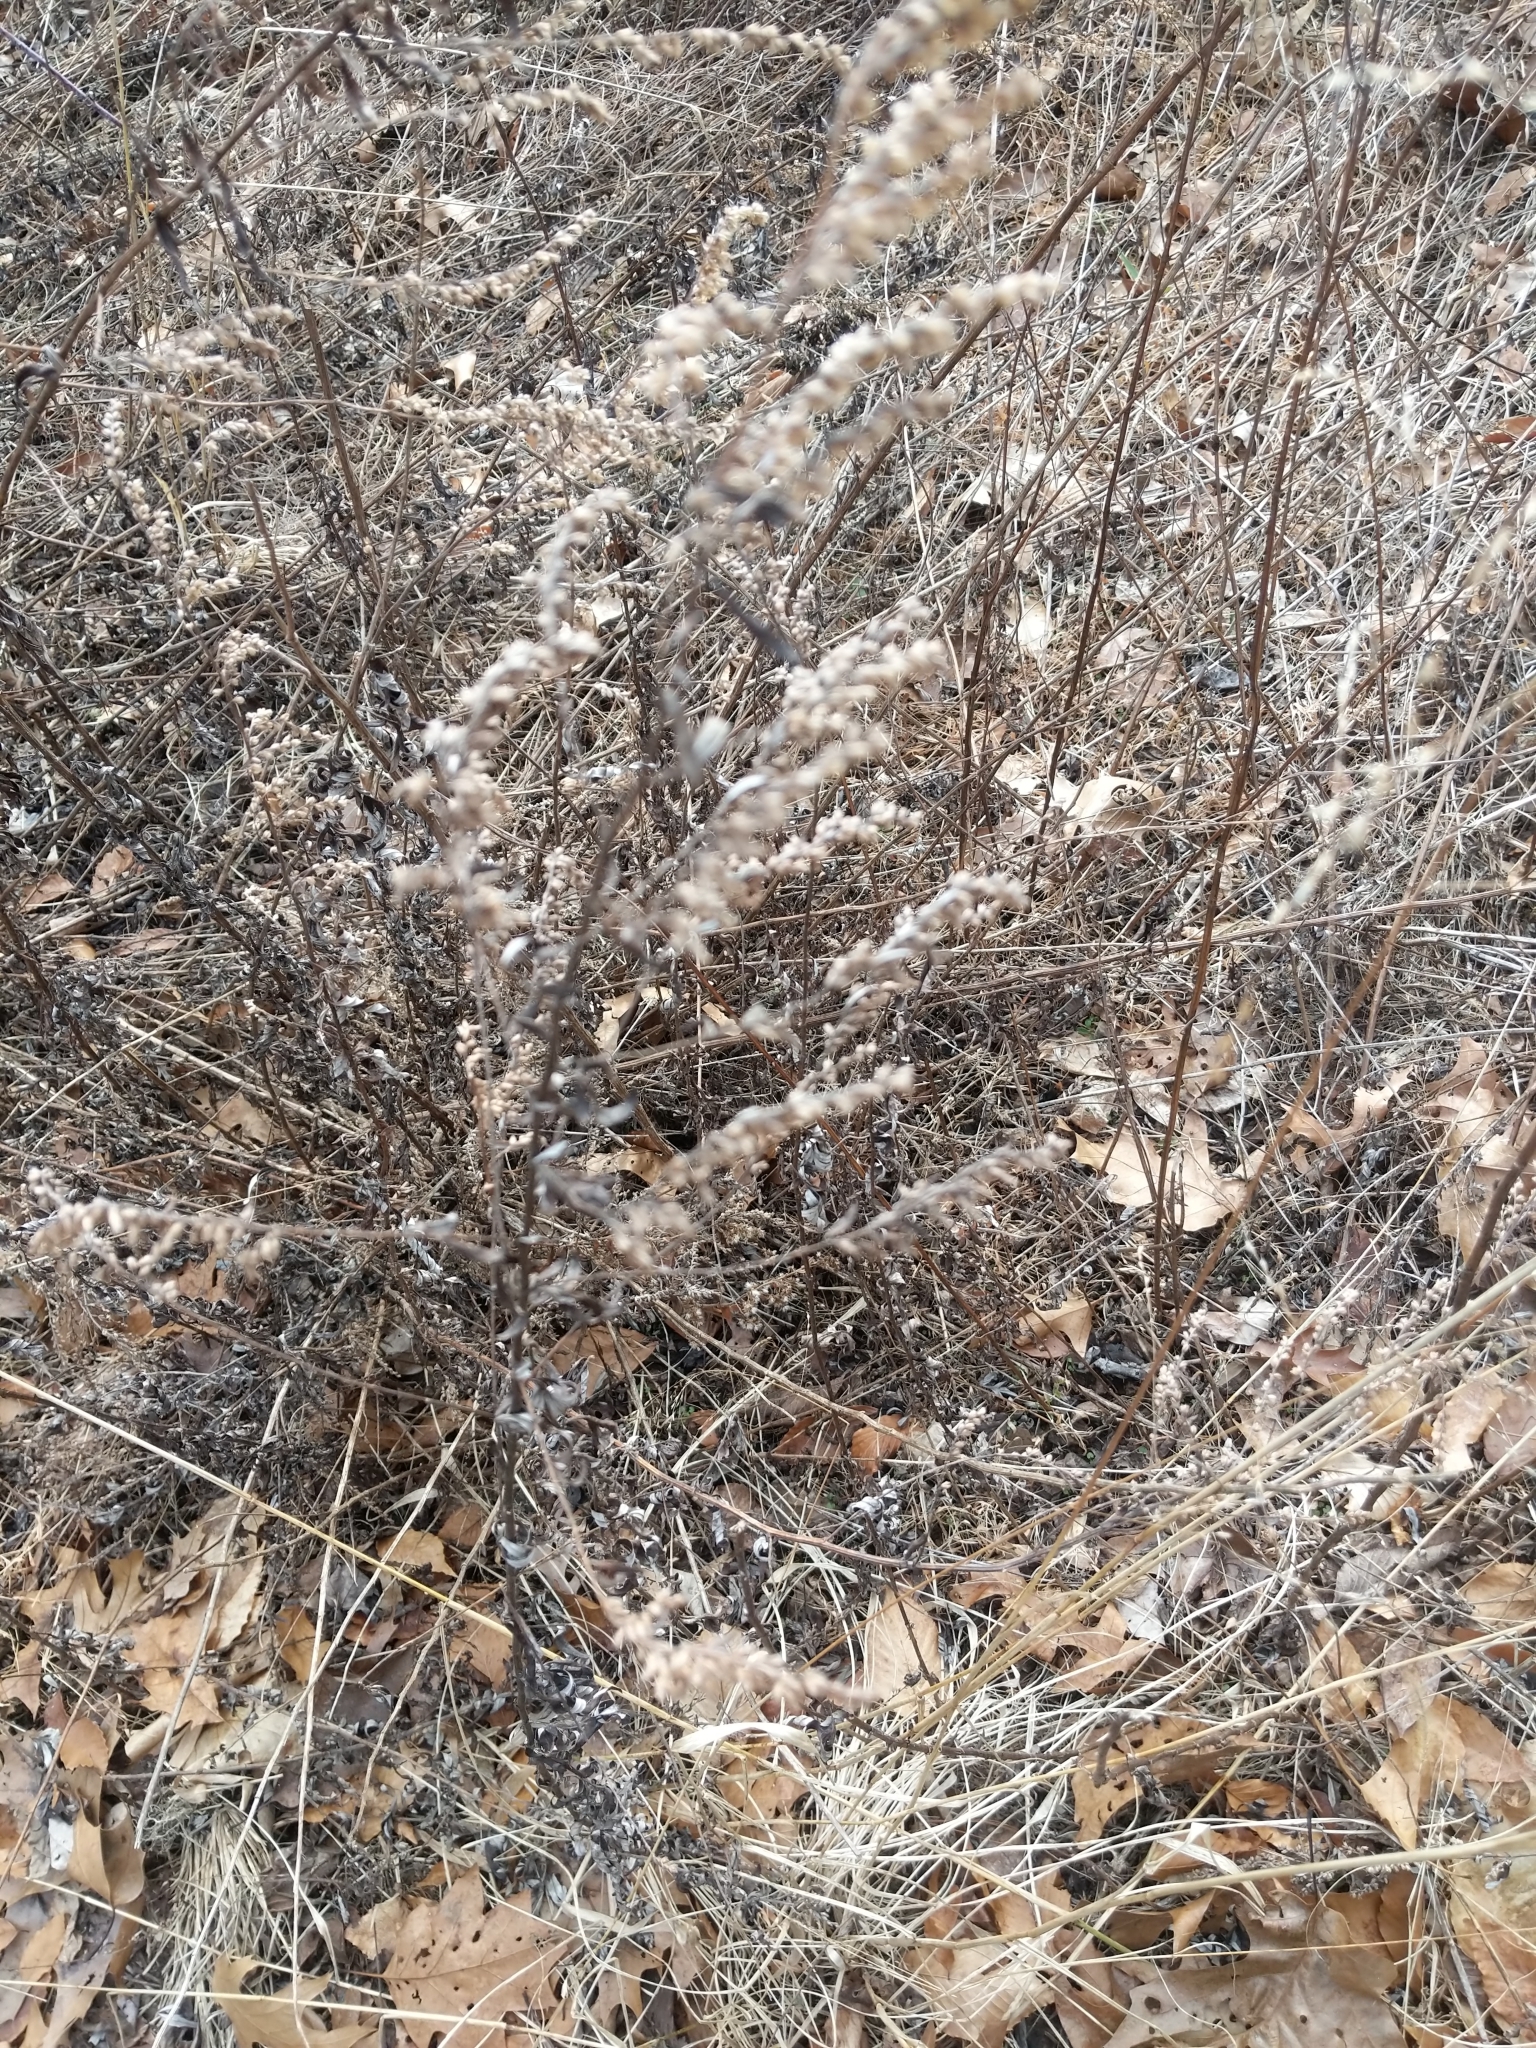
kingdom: Plantae
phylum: Tracheophyta
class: Magnoliopsida
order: Asterales
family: Asteraceae
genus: Artemisia
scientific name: Artemisia vulgaris
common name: Mugwort
